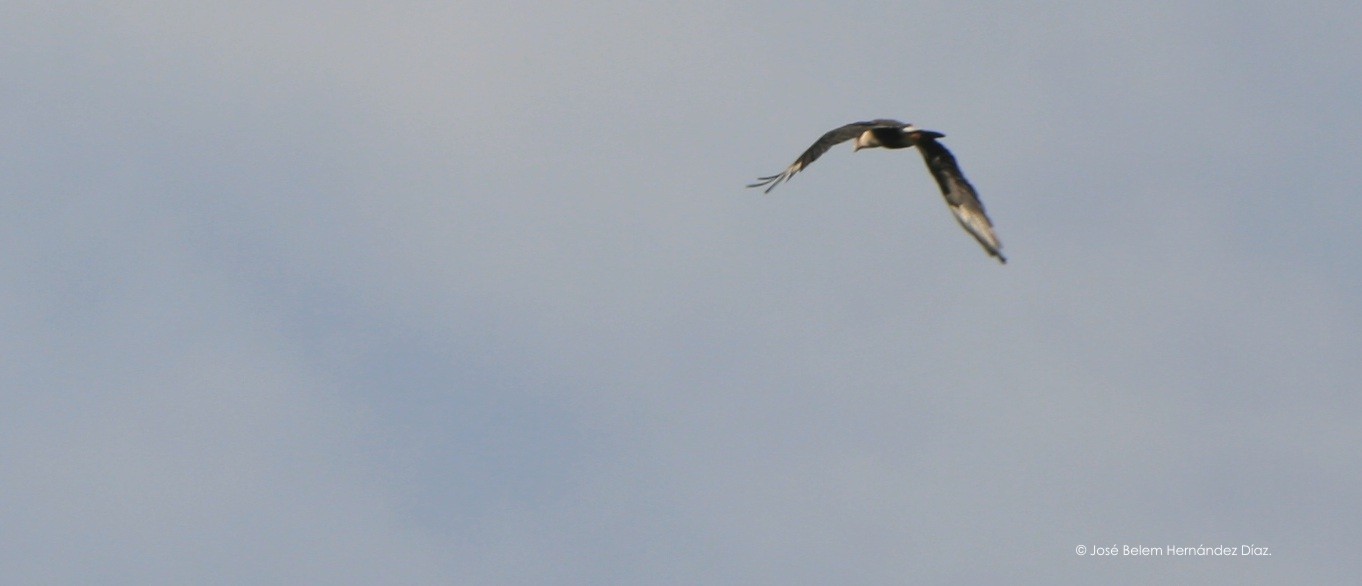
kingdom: Animalia
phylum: Chordata
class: Aves
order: Falconiformes
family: Falconidae
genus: Caracara
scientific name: Caracara plancus
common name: Southern caracara
